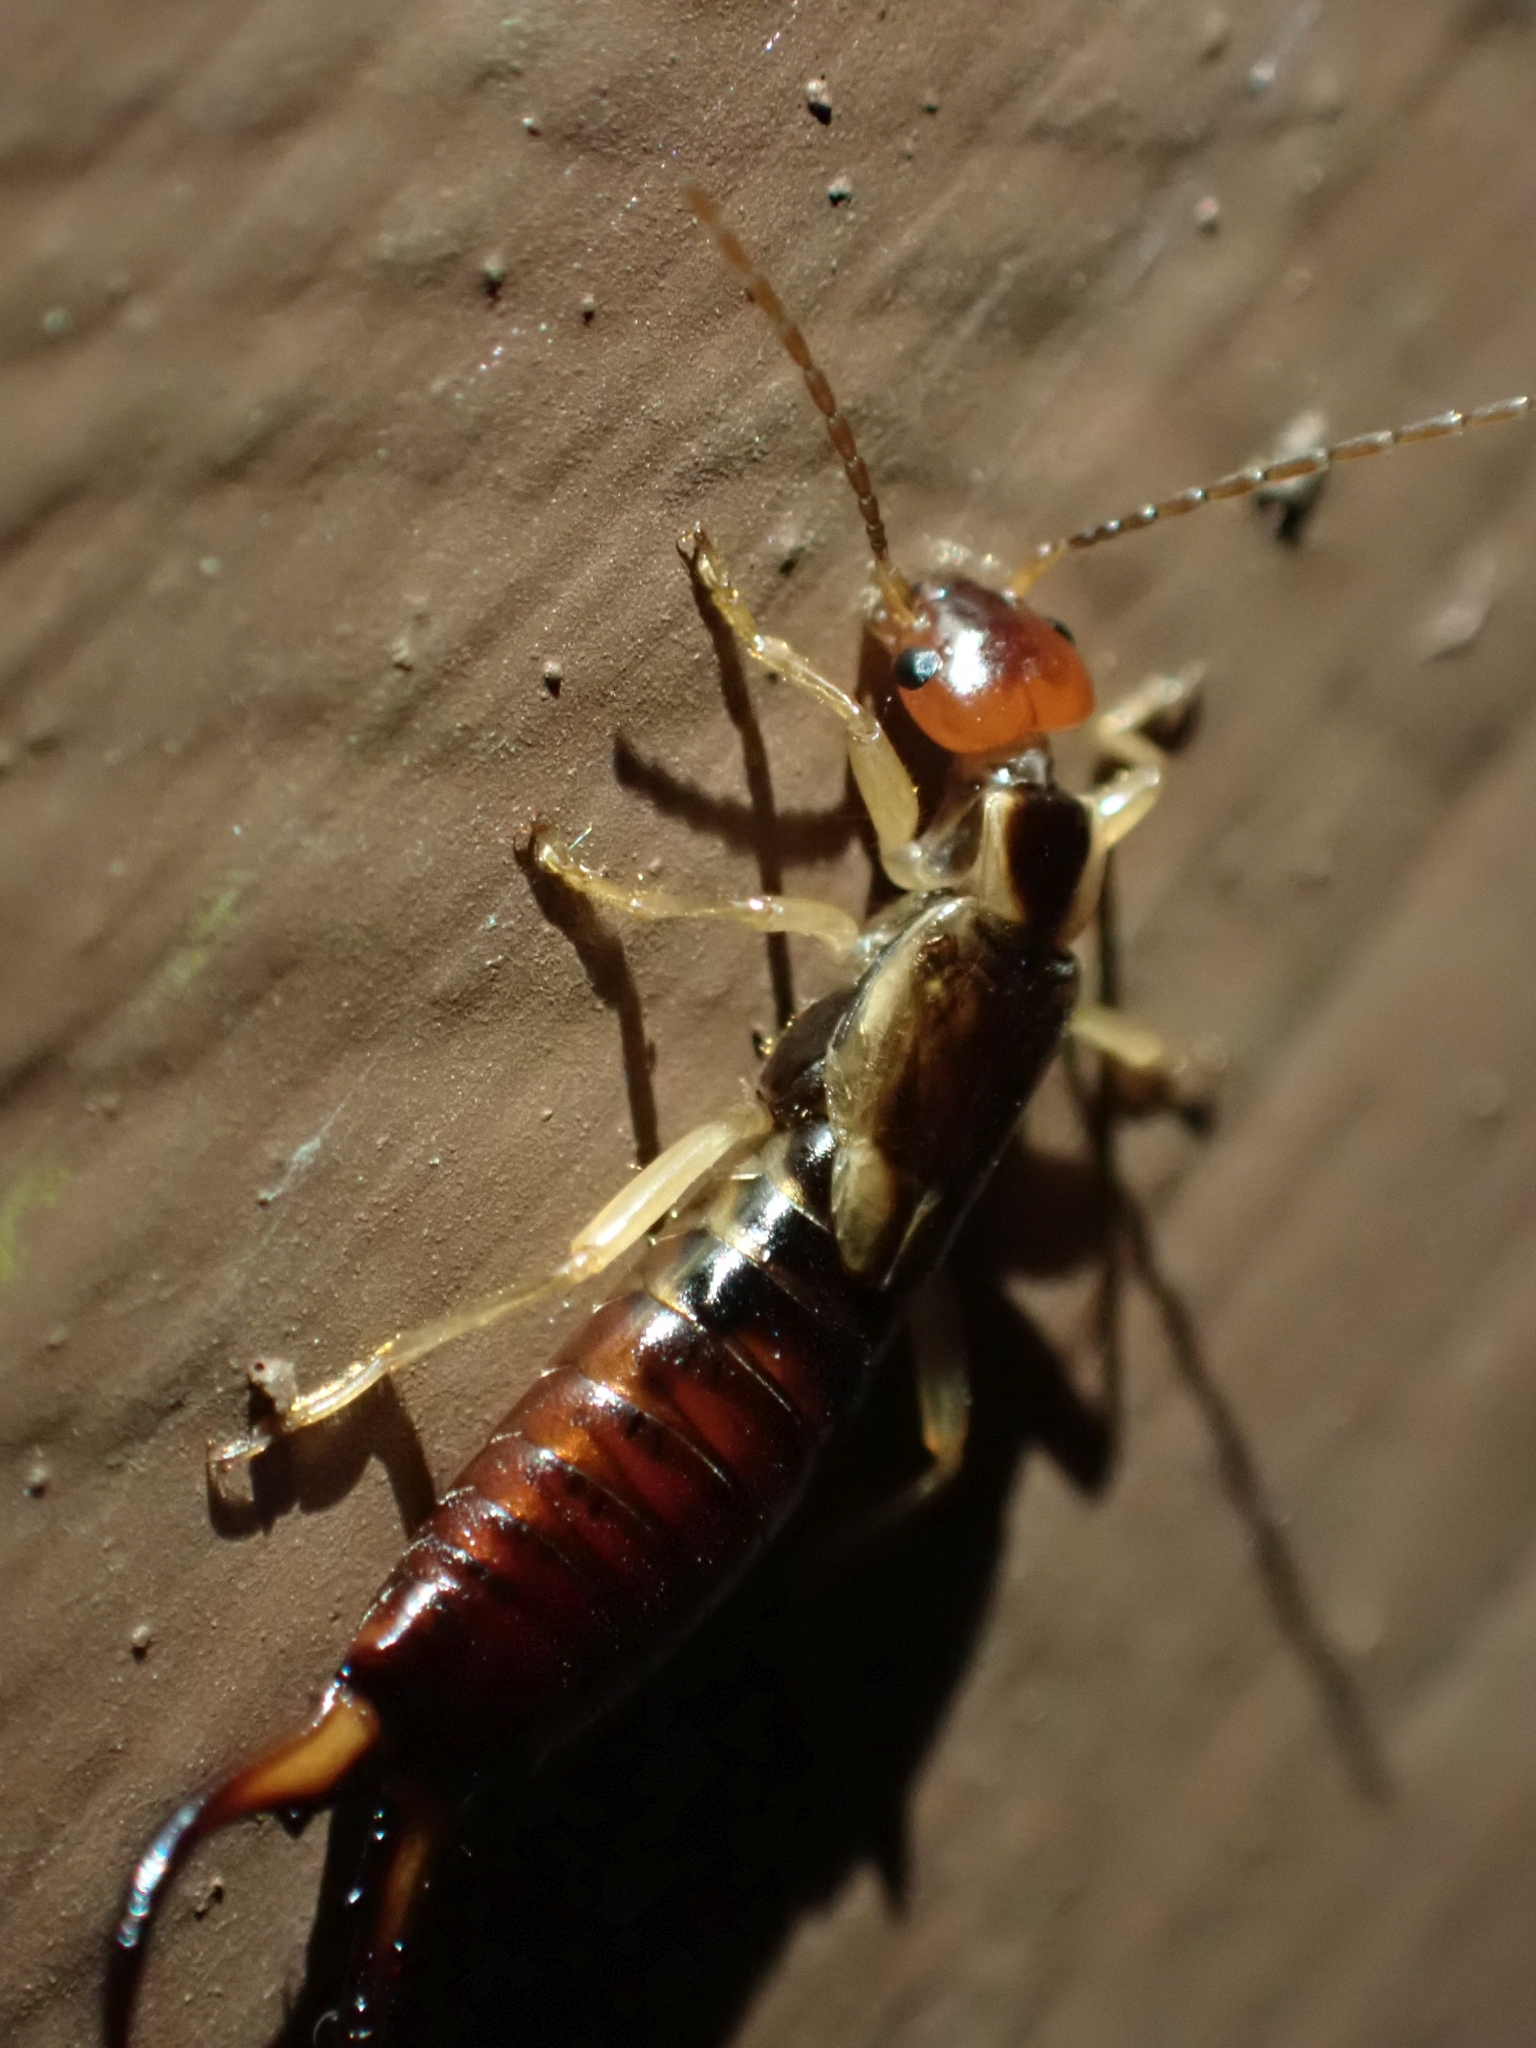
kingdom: Animalia
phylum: Arthropoda
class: Insecta
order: Dermaptera
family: Forficulidae
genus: Forficula
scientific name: Forficula
